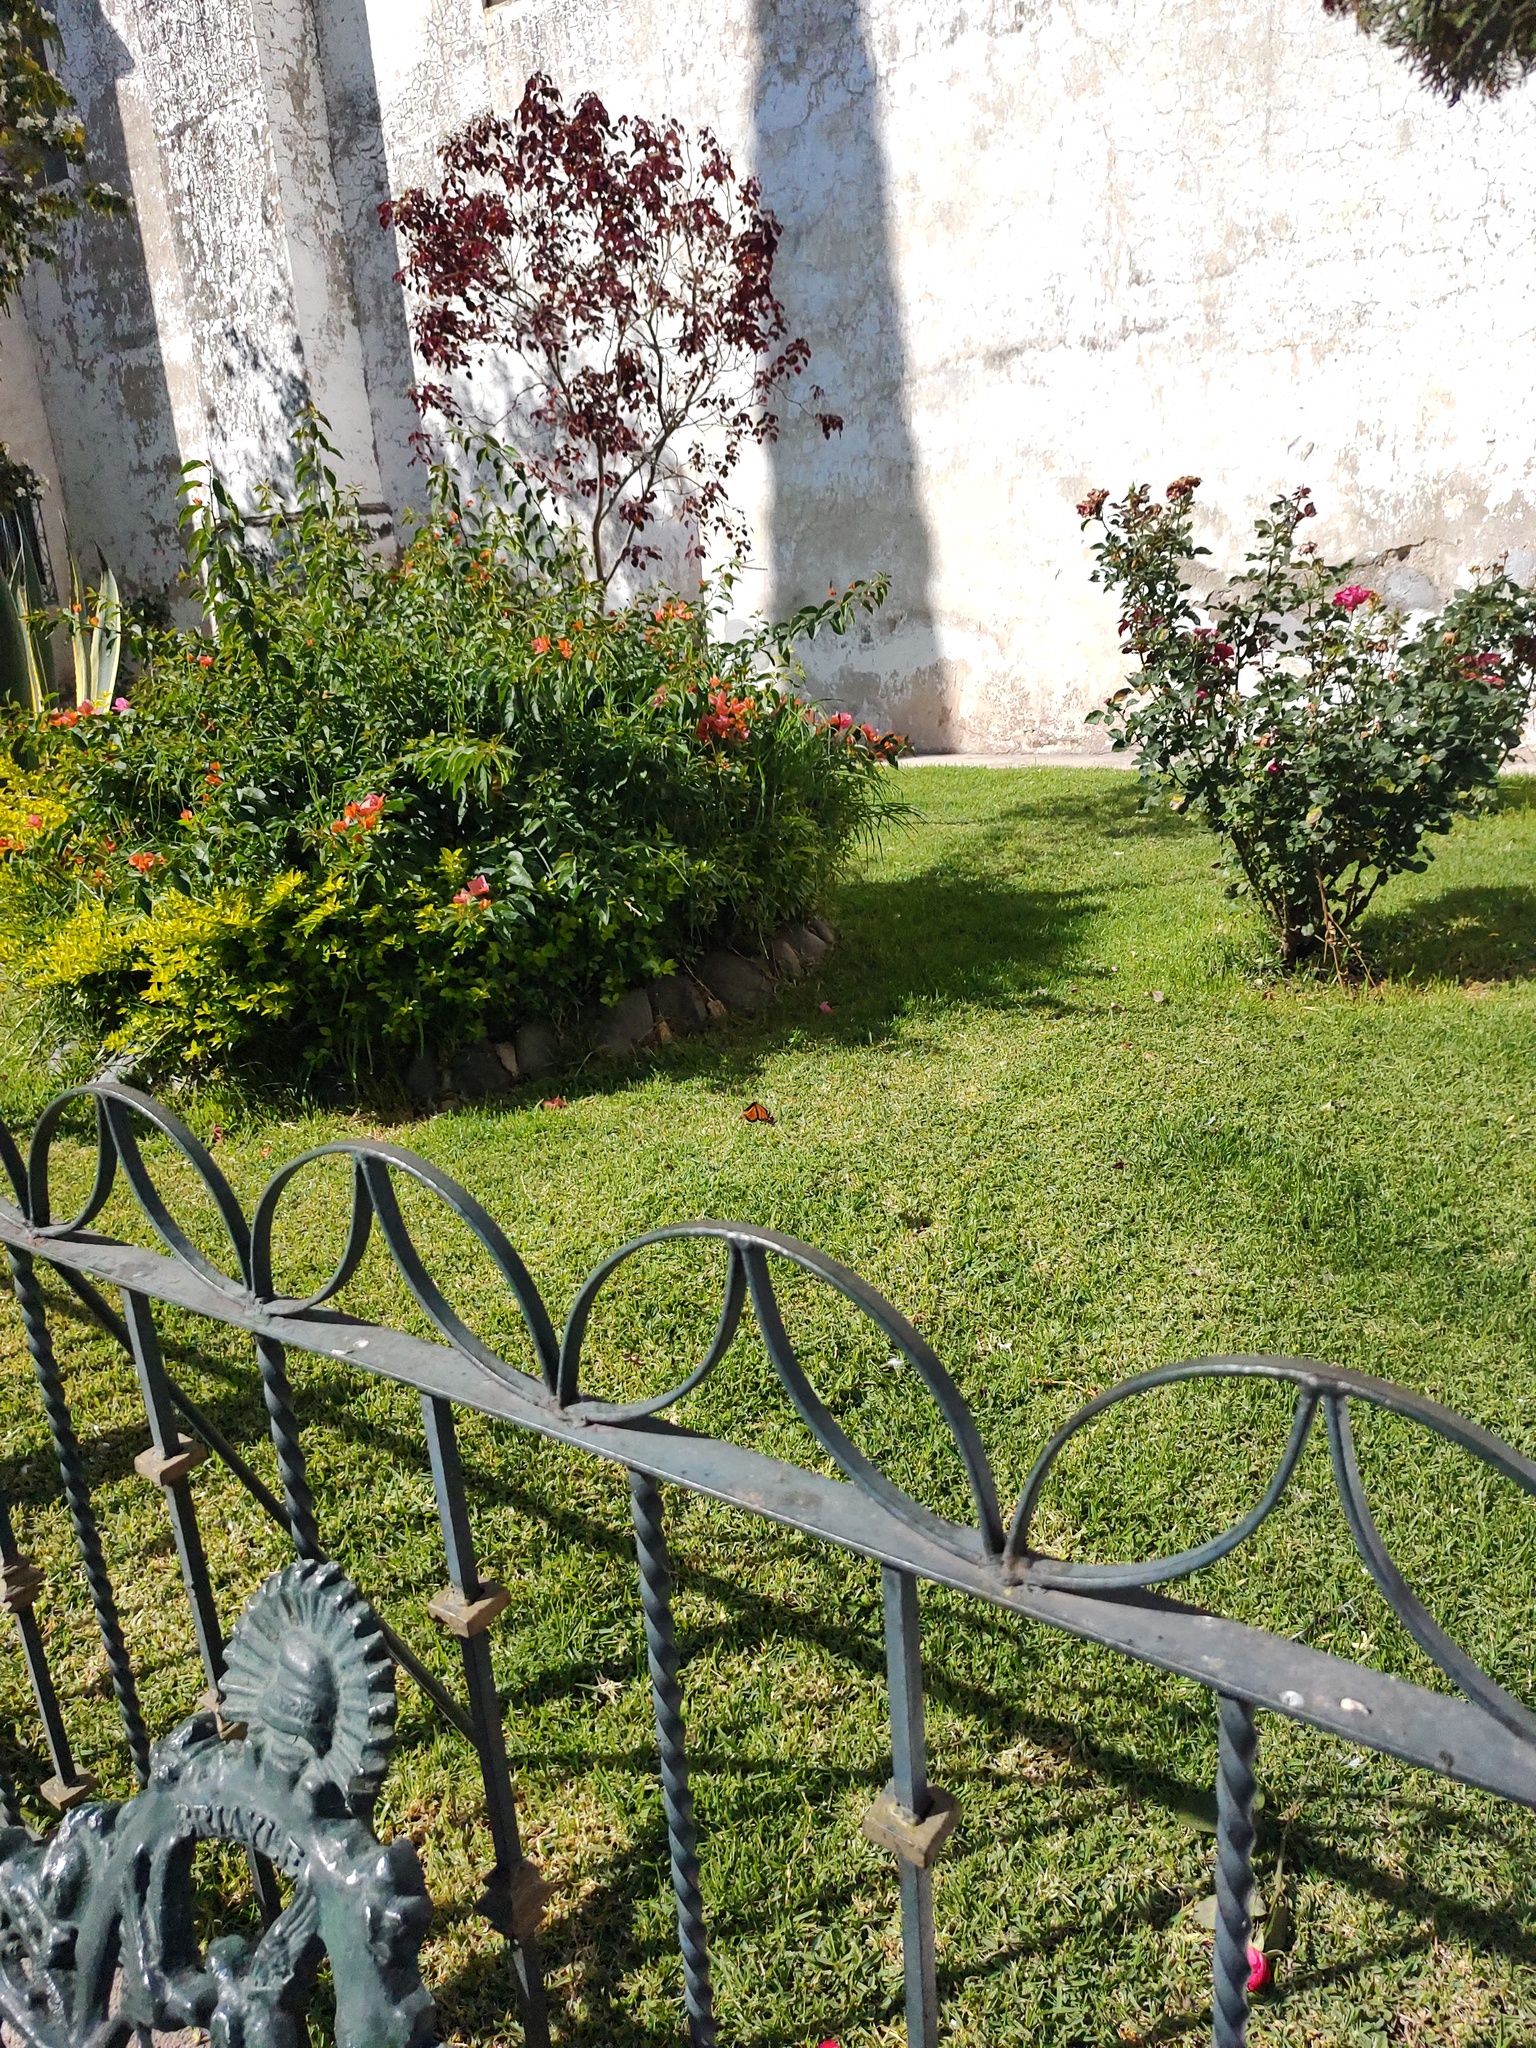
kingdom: Animalia
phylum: Arthropoda
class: Insecta
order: Lepidoptera
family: Nymphalidae
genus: Danaus
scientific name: Danaus plexippus
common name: Monarch
